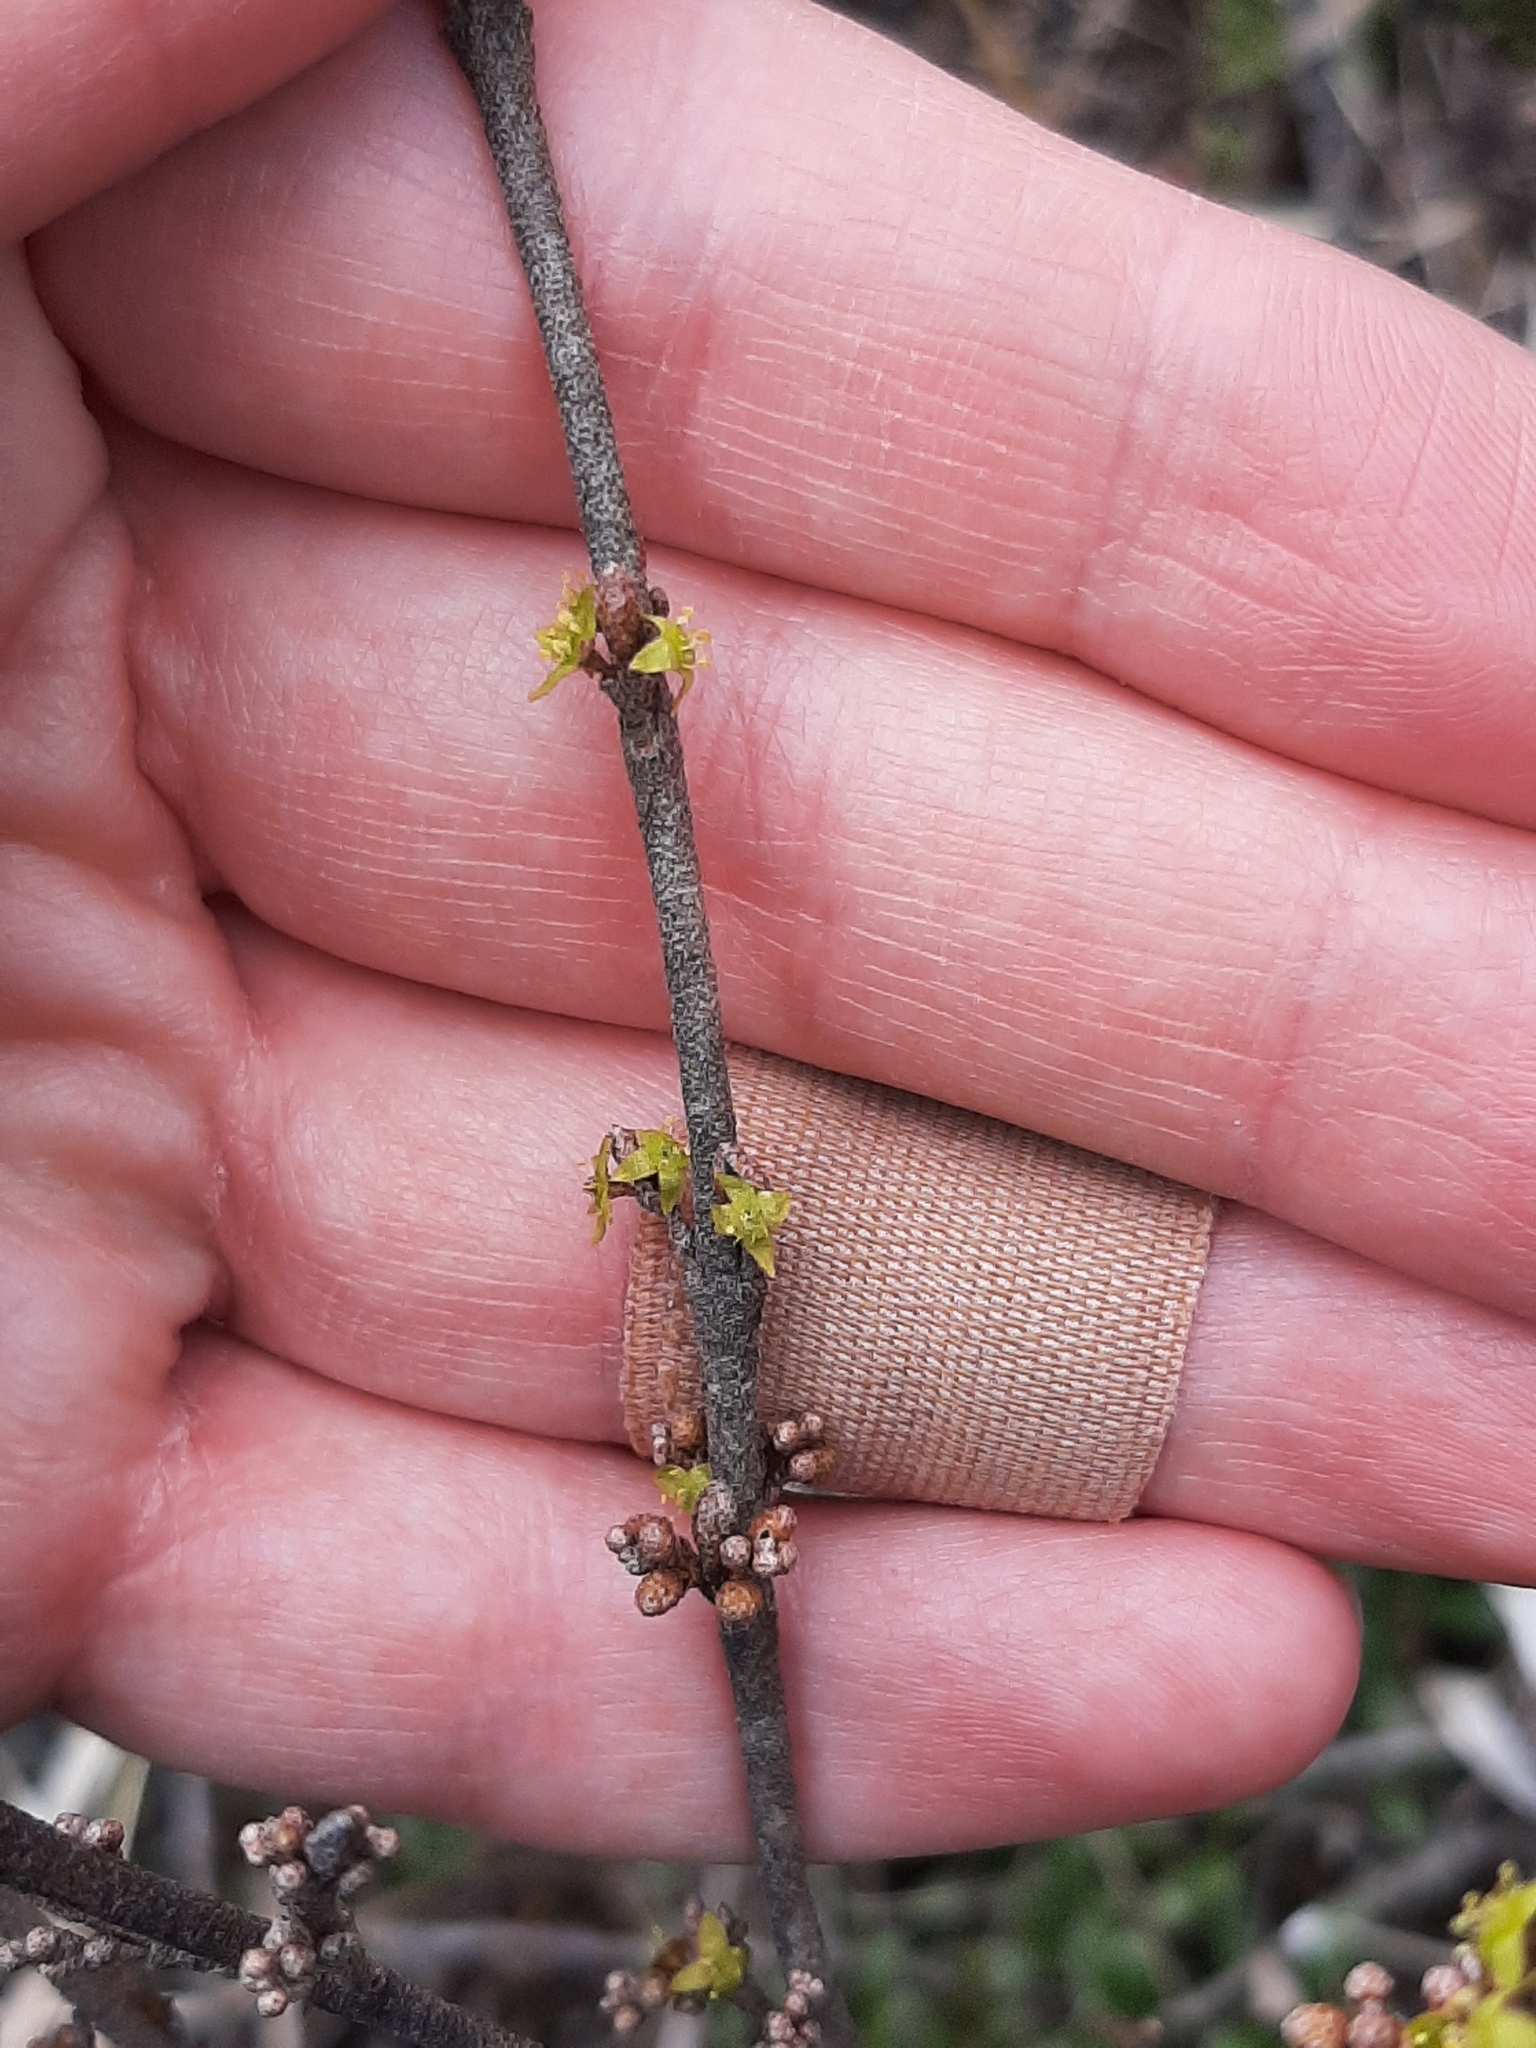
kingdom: Plantae
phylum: Tracheophyta
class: Magnoliopsida
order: Rosales
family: Elaeagnaceae
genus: Shepherdia
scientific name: Shepherdia canadensis
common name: Soapberry
